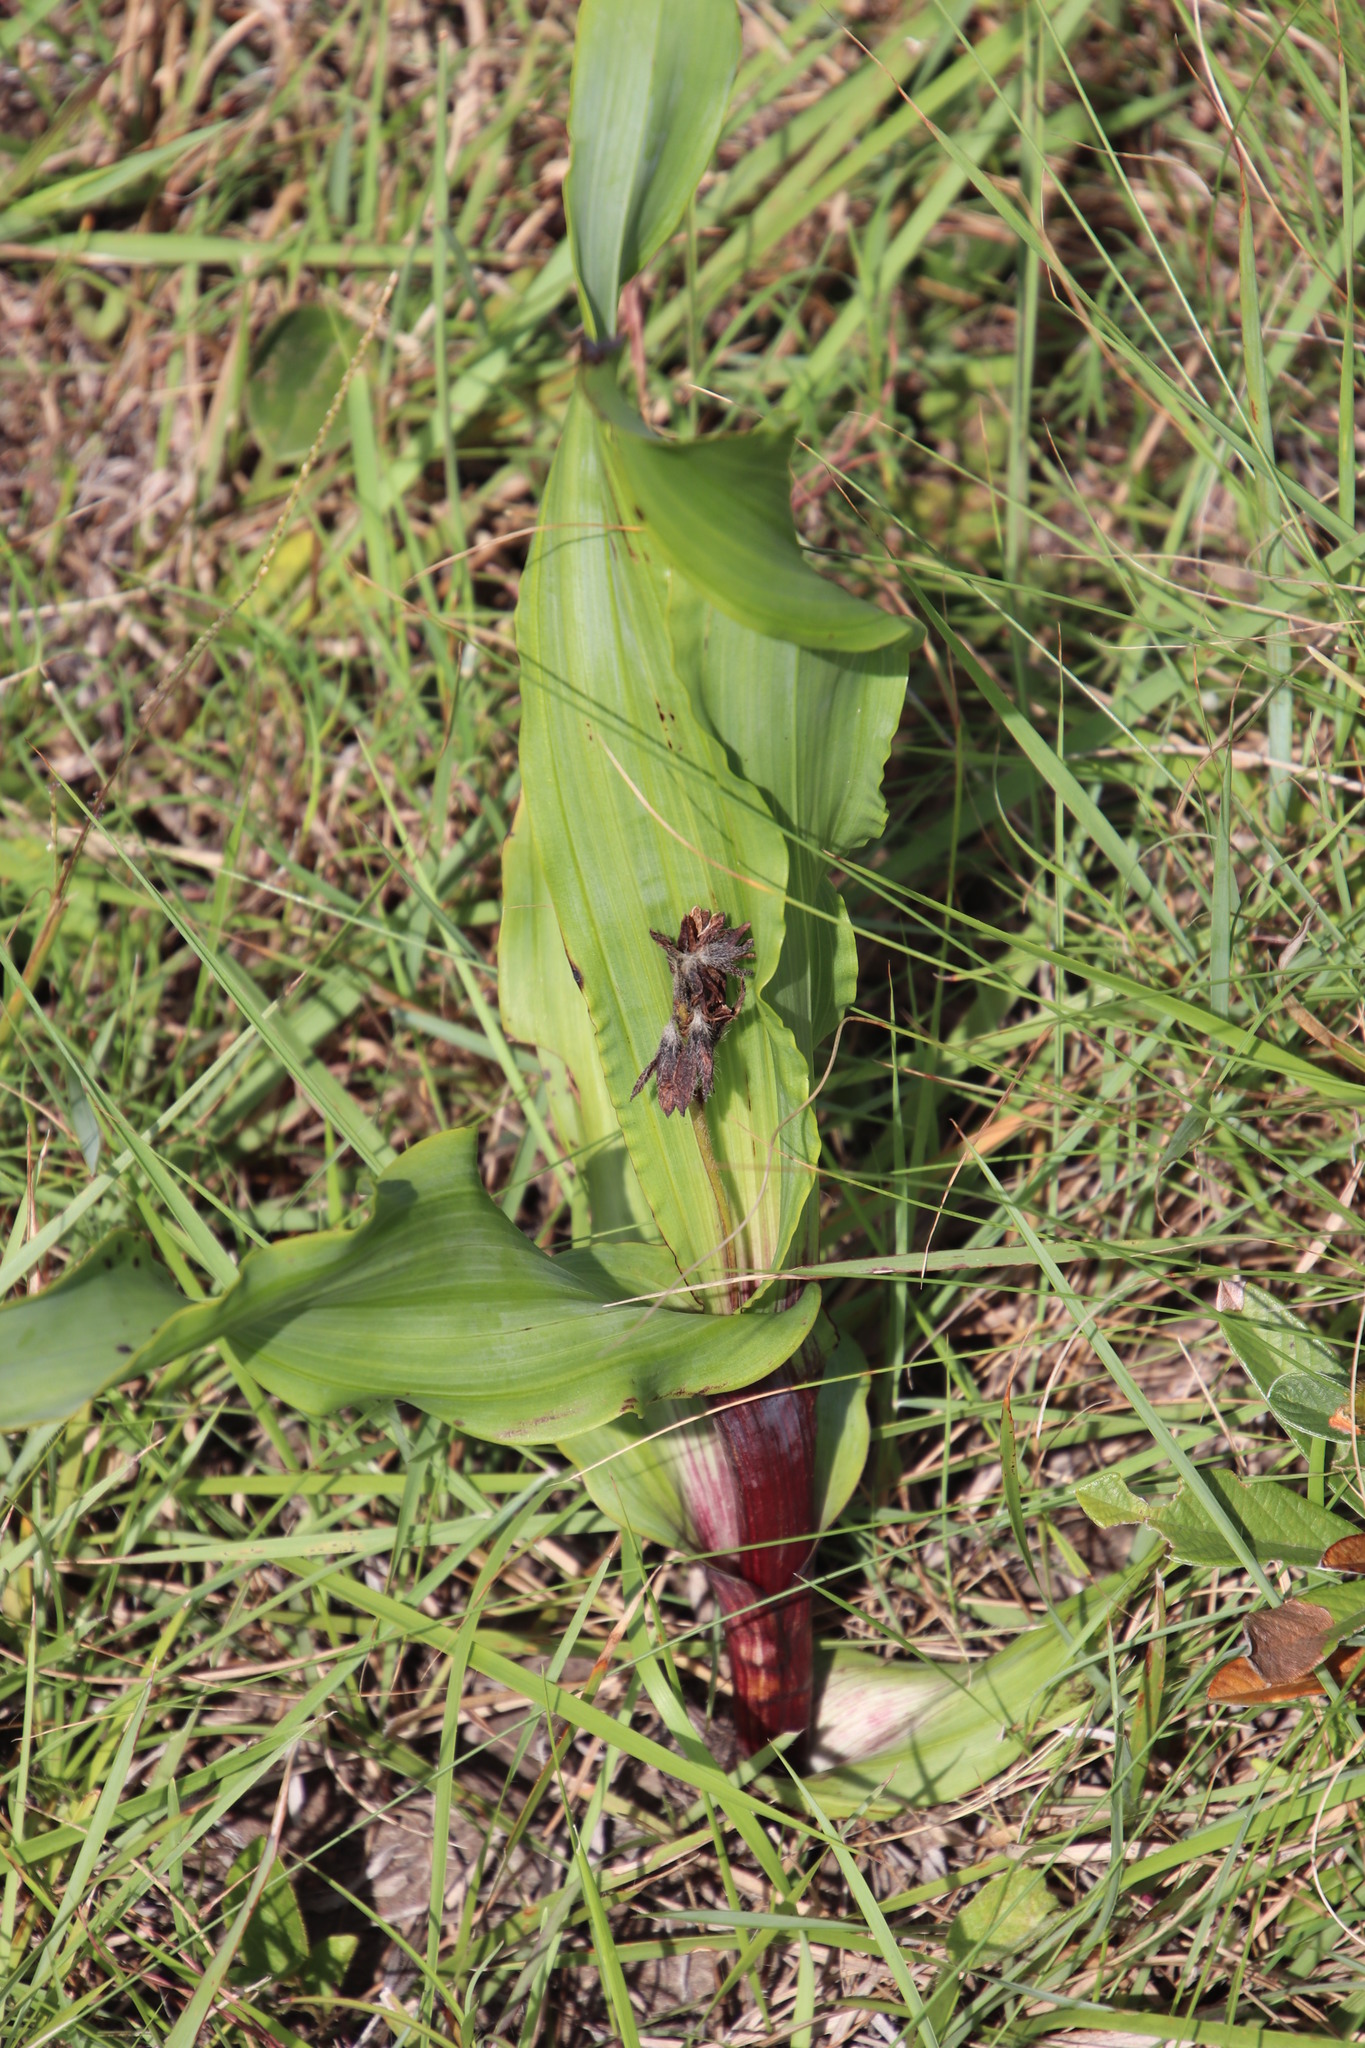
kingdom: Plantae
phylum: Tracheophyta
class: Liliopsida
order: Asparagales
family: Hypoxidaceae
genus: Hypoxis
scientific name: Hypoxis colchicifolia
